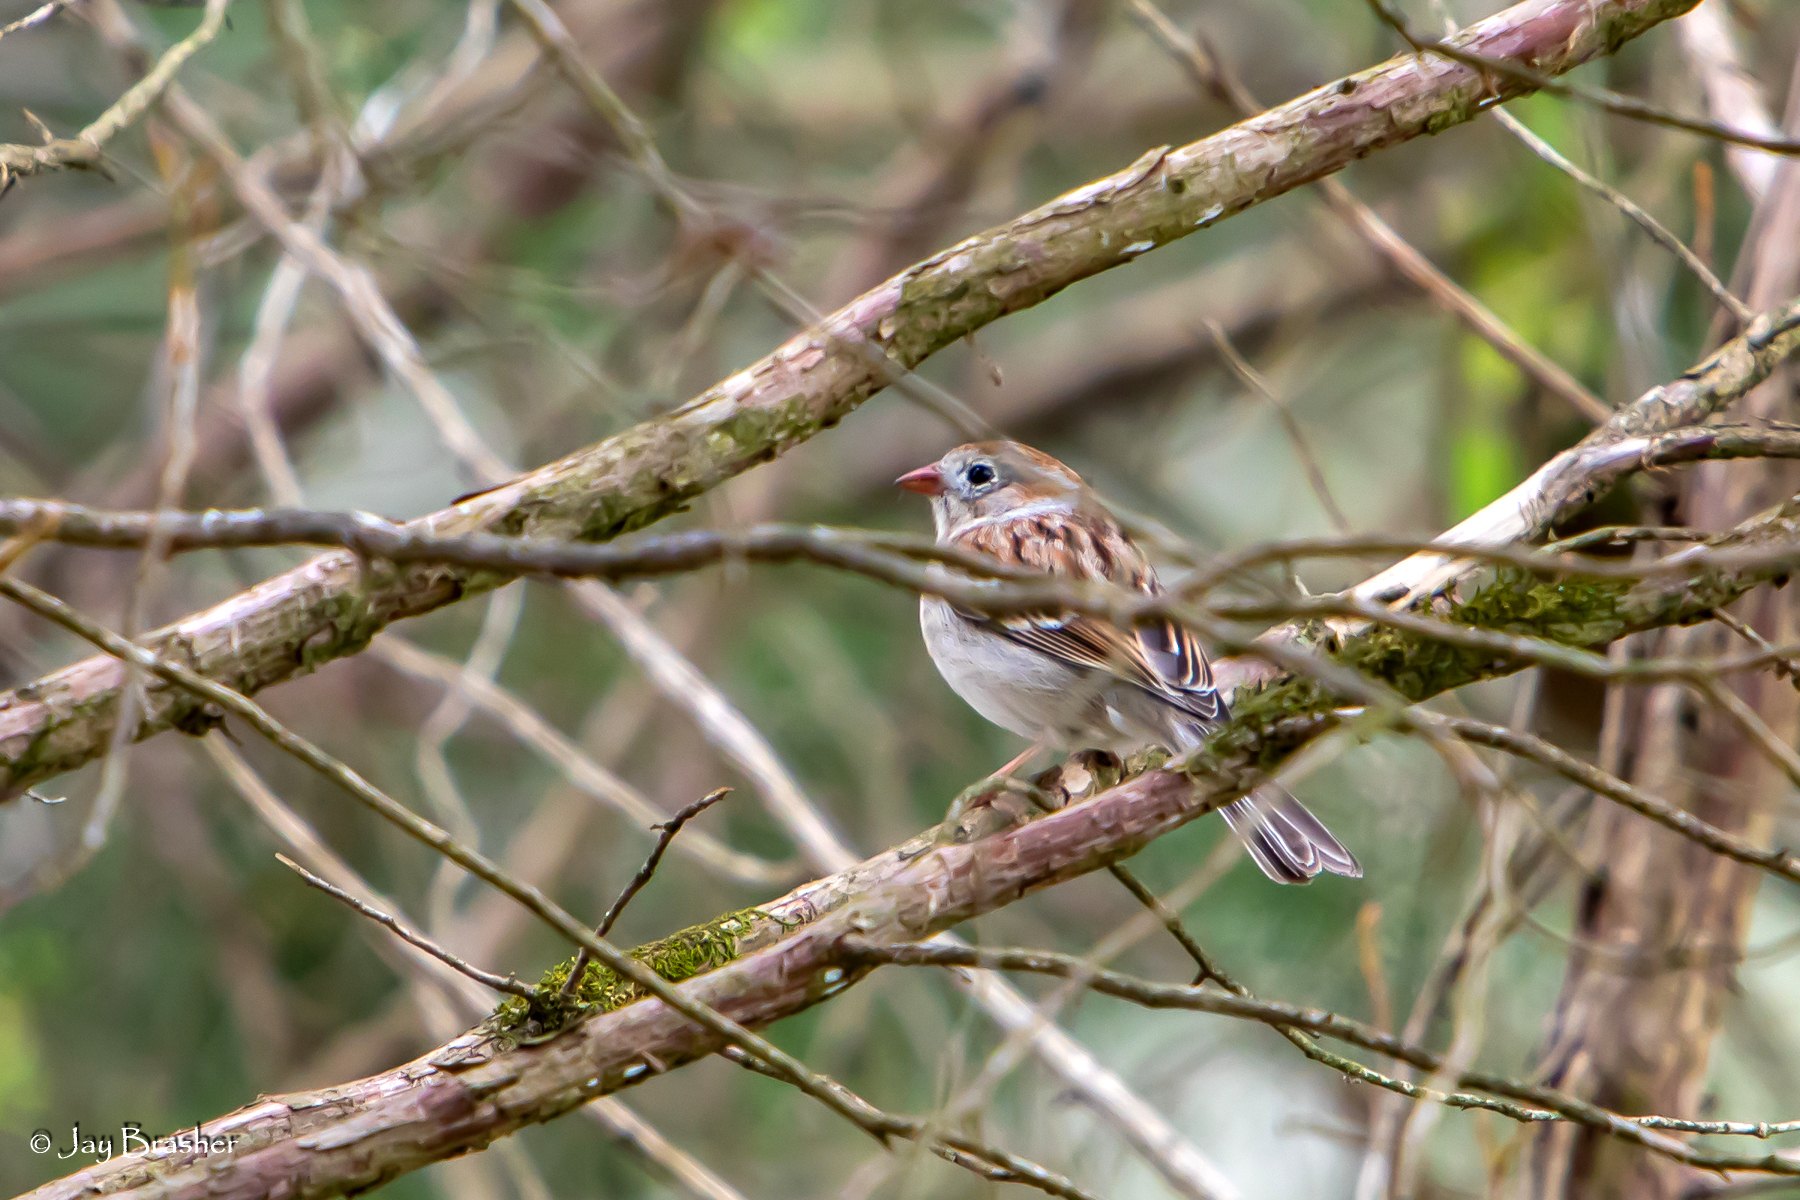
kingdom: Animalia
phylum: Chordata
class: Aves
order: Passeriformes
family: Passerellidae
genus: Spizella
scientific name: Spizella pusilla
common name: Field sparrow
